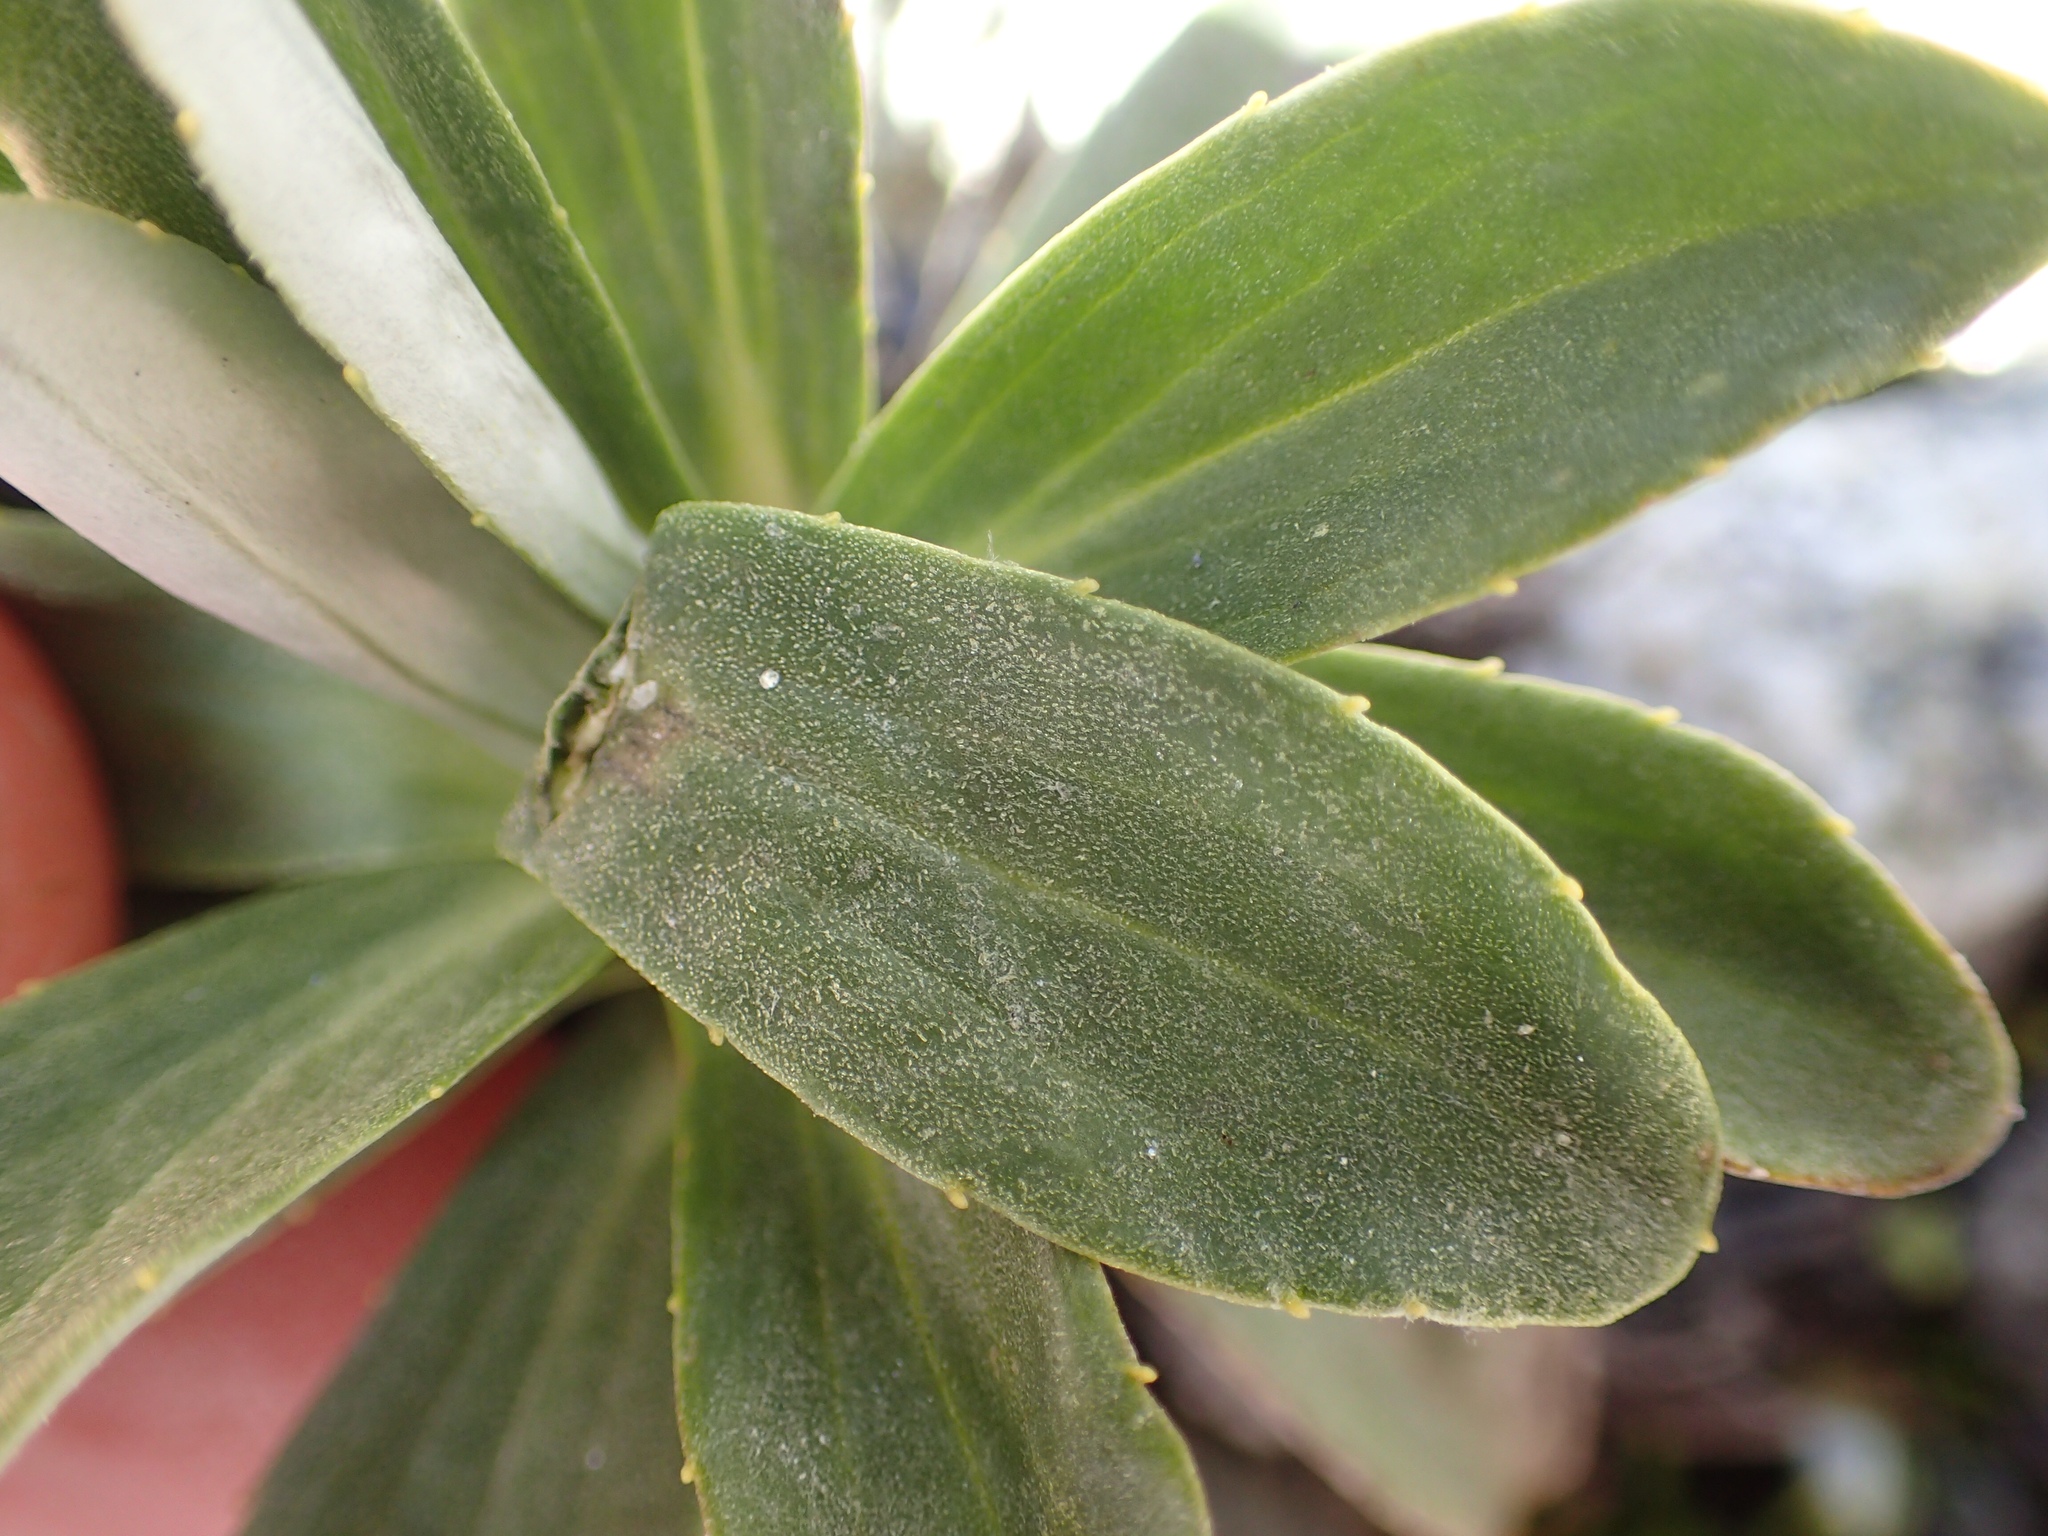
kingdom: Plantae
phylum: Tracheophyta
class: Magnoliopsida
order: Asterales
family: Asteraceae
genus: Celmisia
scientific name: Celmisia angustifolia
